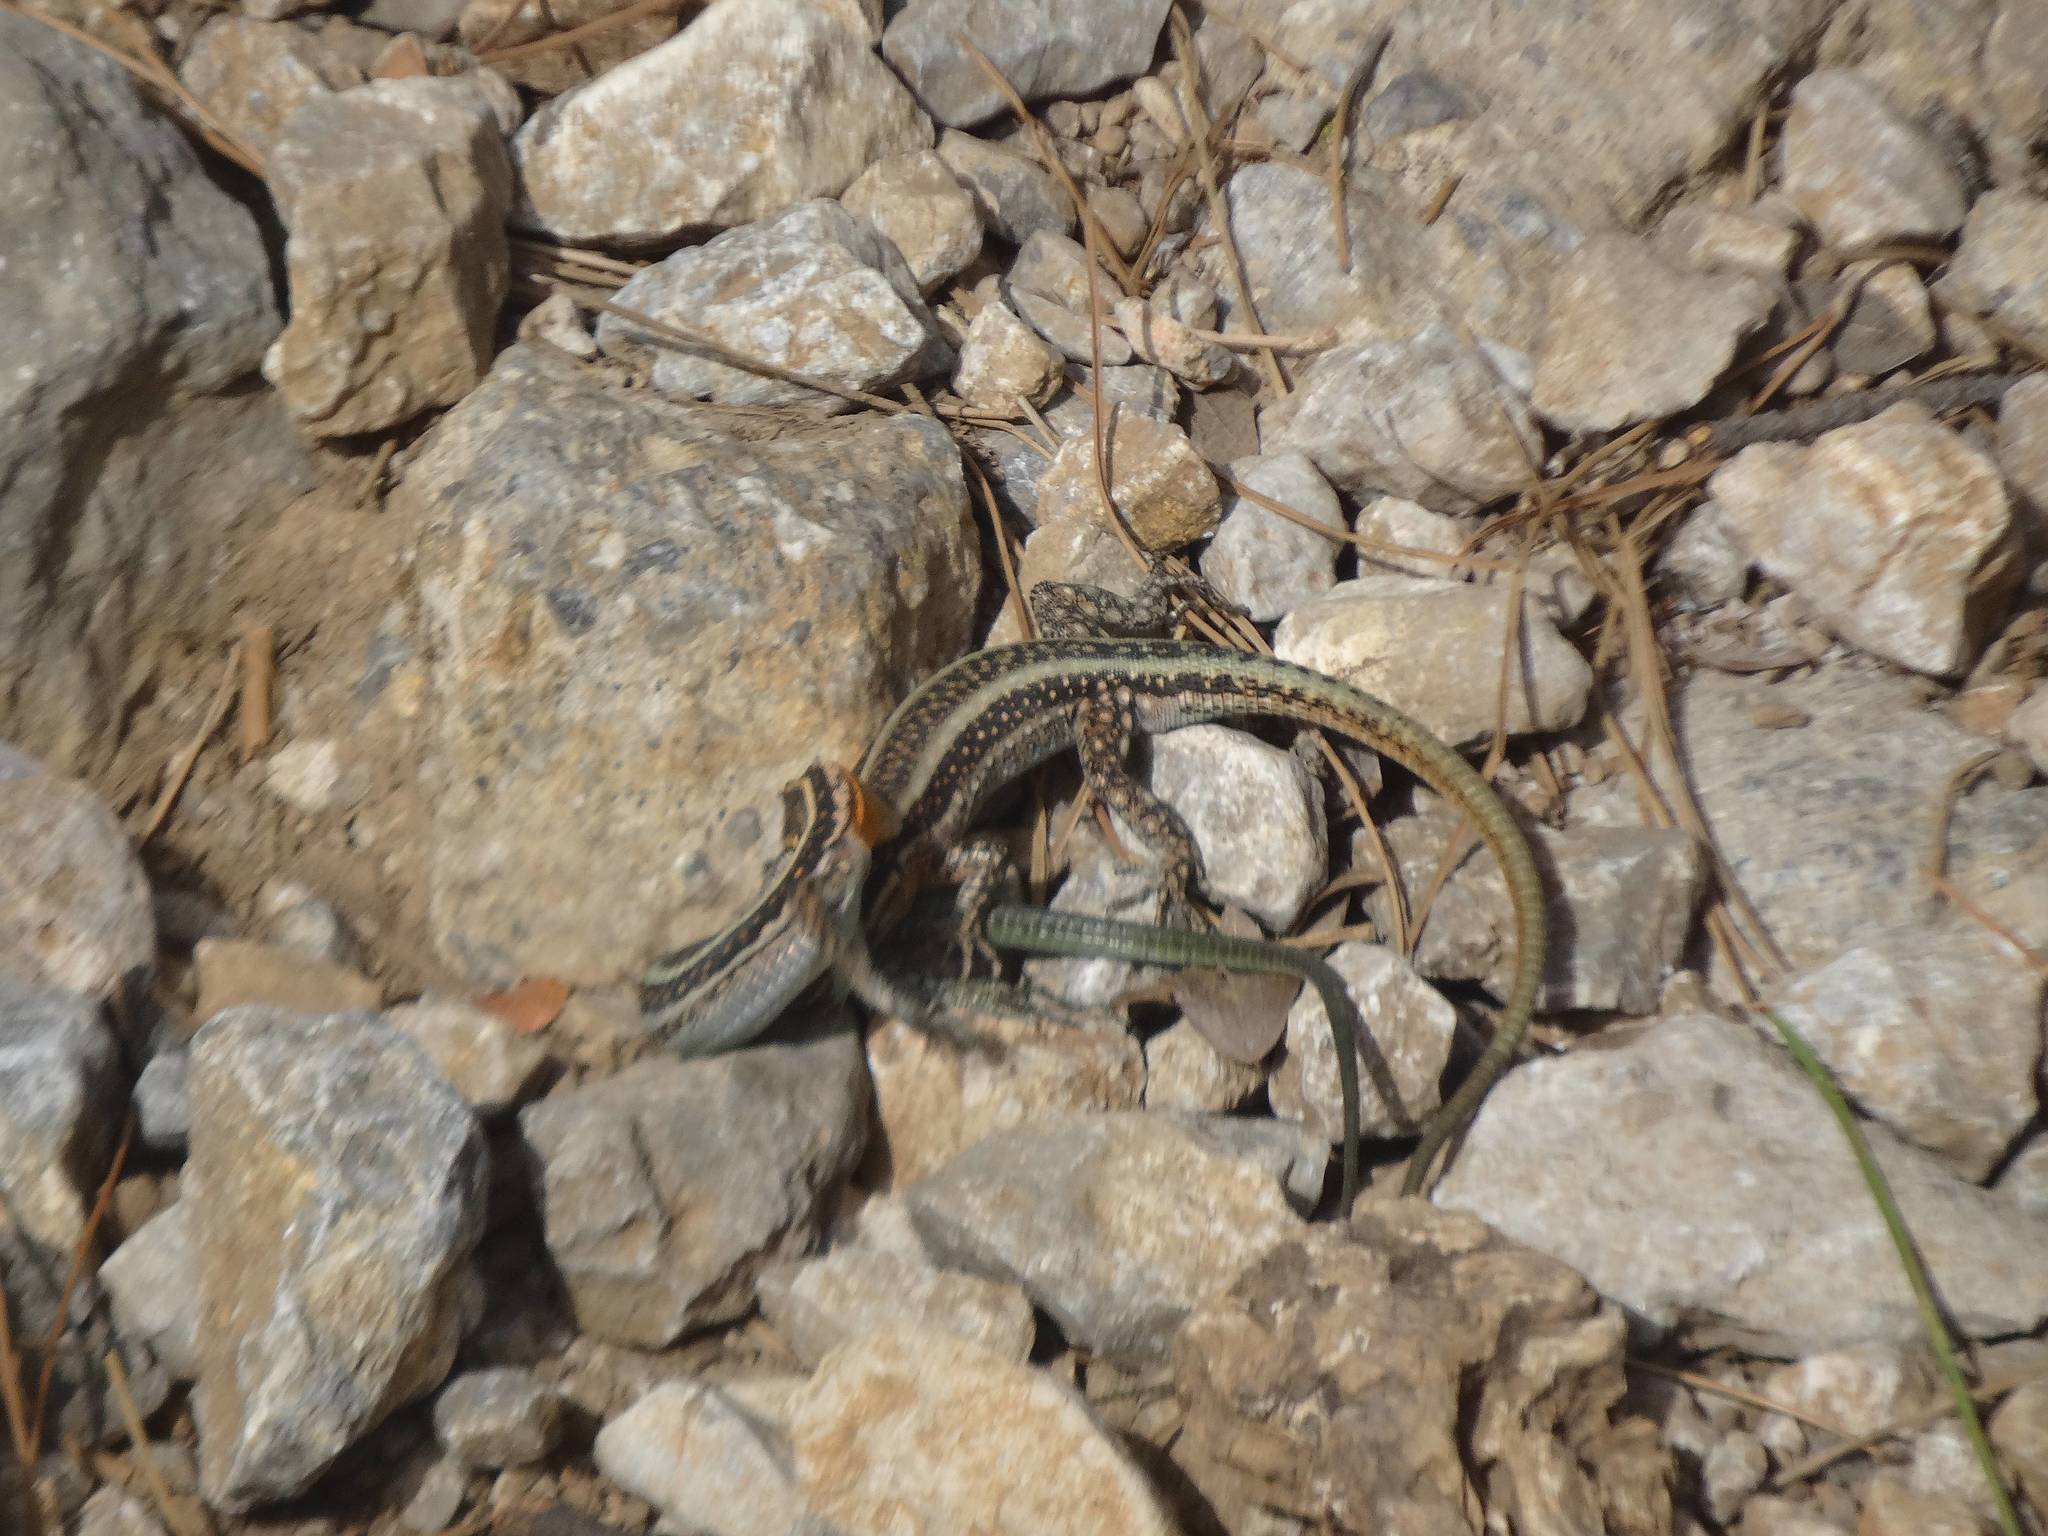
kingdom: Animalia
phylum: Chordata
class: Squamata
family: Lacertidae
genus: Anatololacerta
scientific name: Anatololacerta pelasgiana
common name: Pelasgian rock lizard
